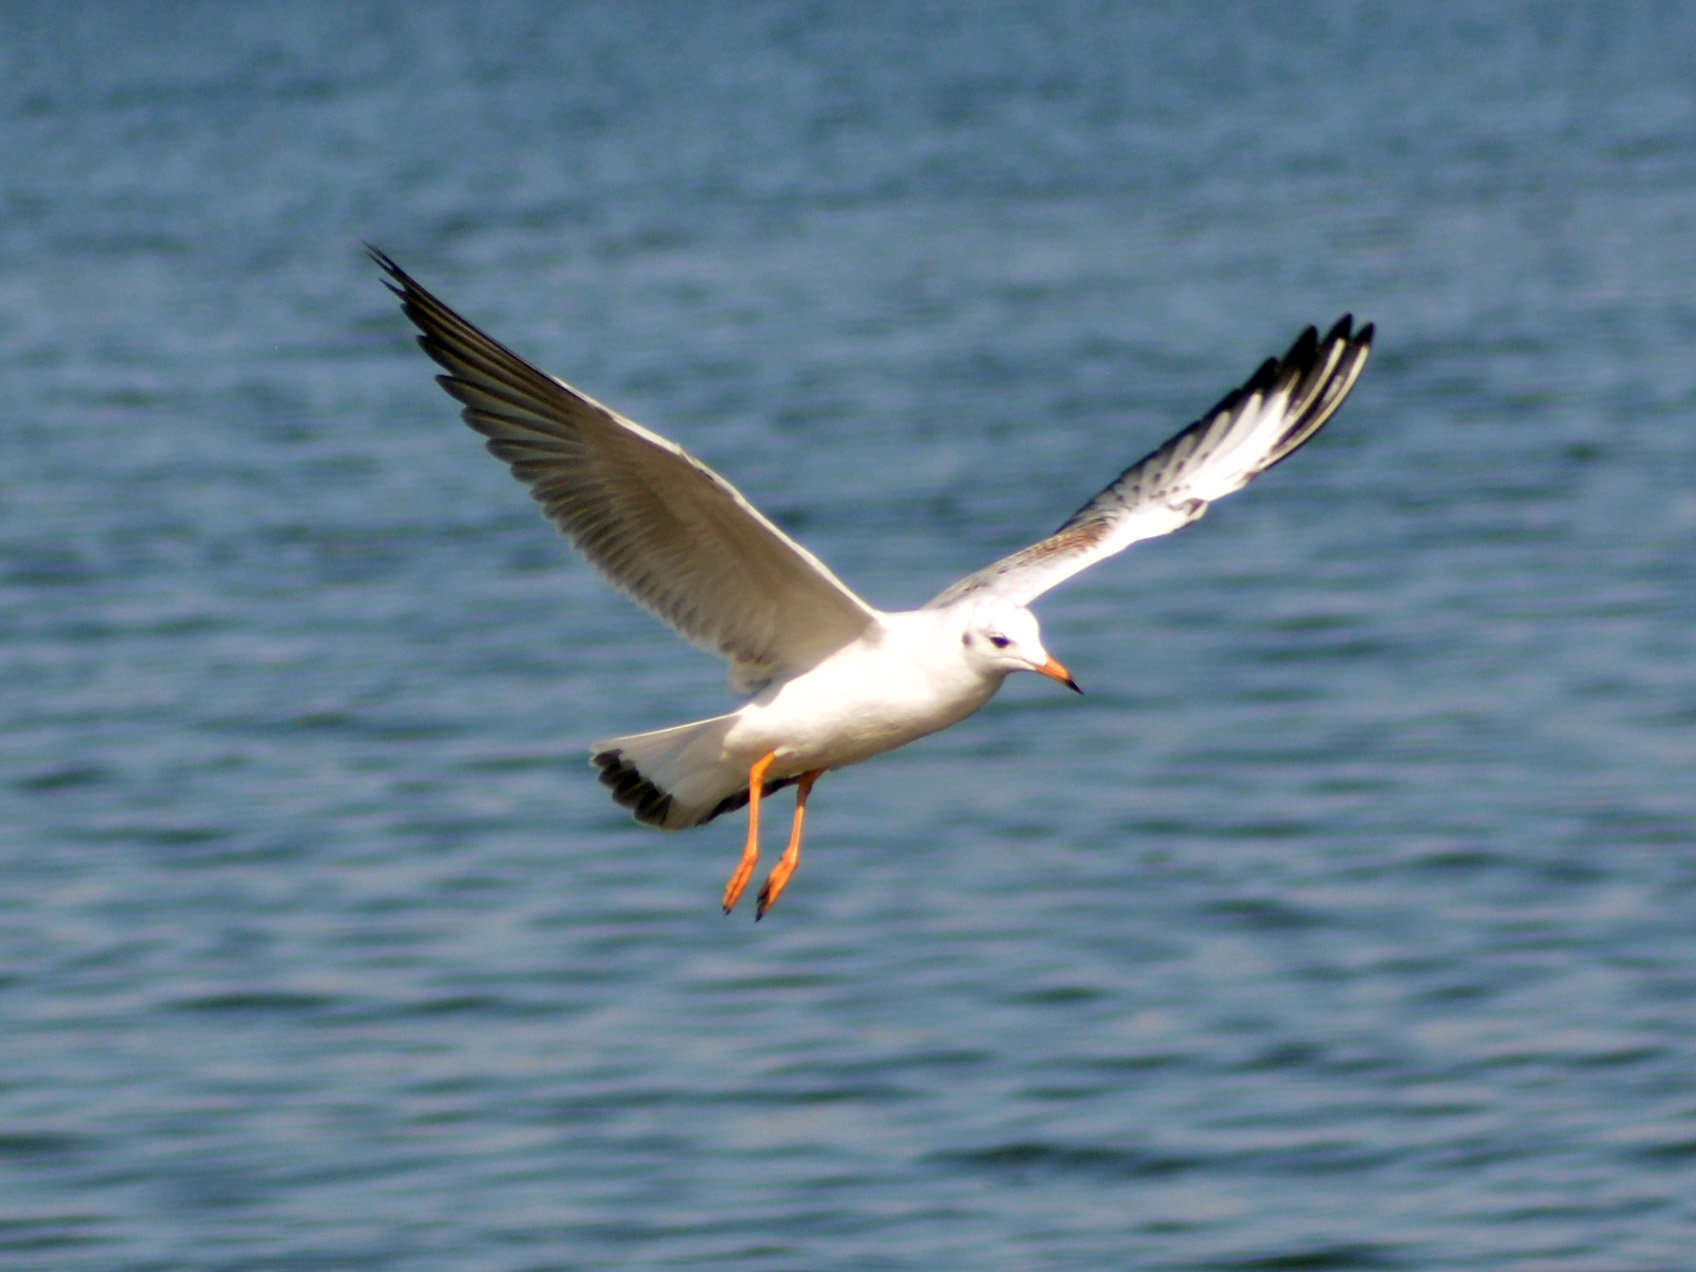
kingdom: Animalia
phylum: Chordata
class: Aves
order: Charadriiformes
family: Laridae
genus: Chroicocephalus
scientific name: Chroicocephalus ridibundus
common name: Black-headed gull
